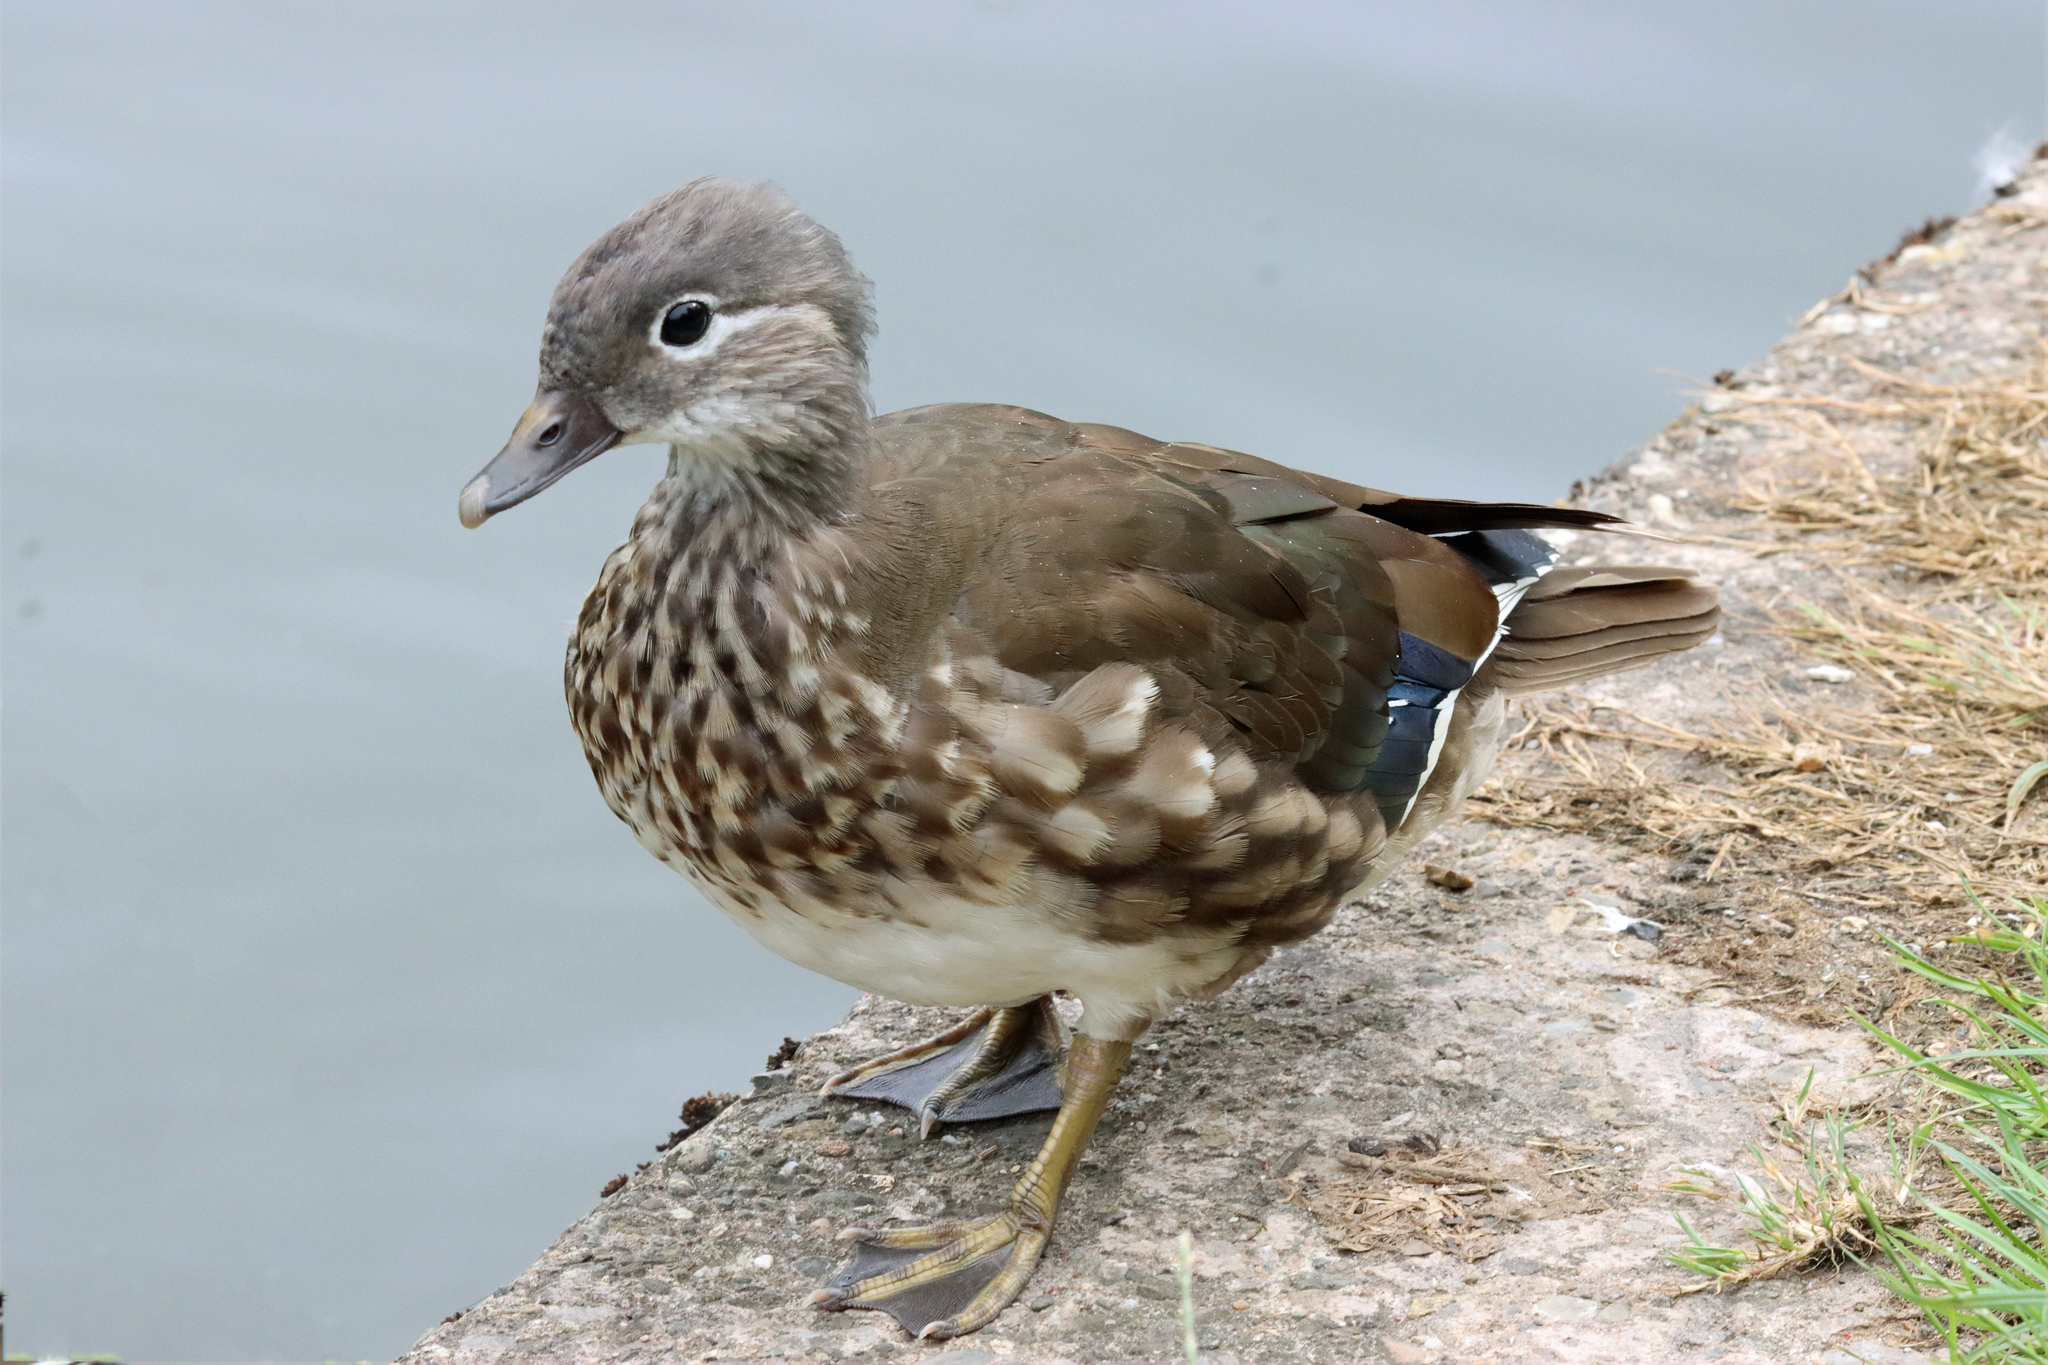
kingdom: Animalia
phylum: Chordata
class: Aves
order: Anseriformes
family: Anatidae
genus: Aix
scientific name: Aix galericulata
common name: Mandarin duck
